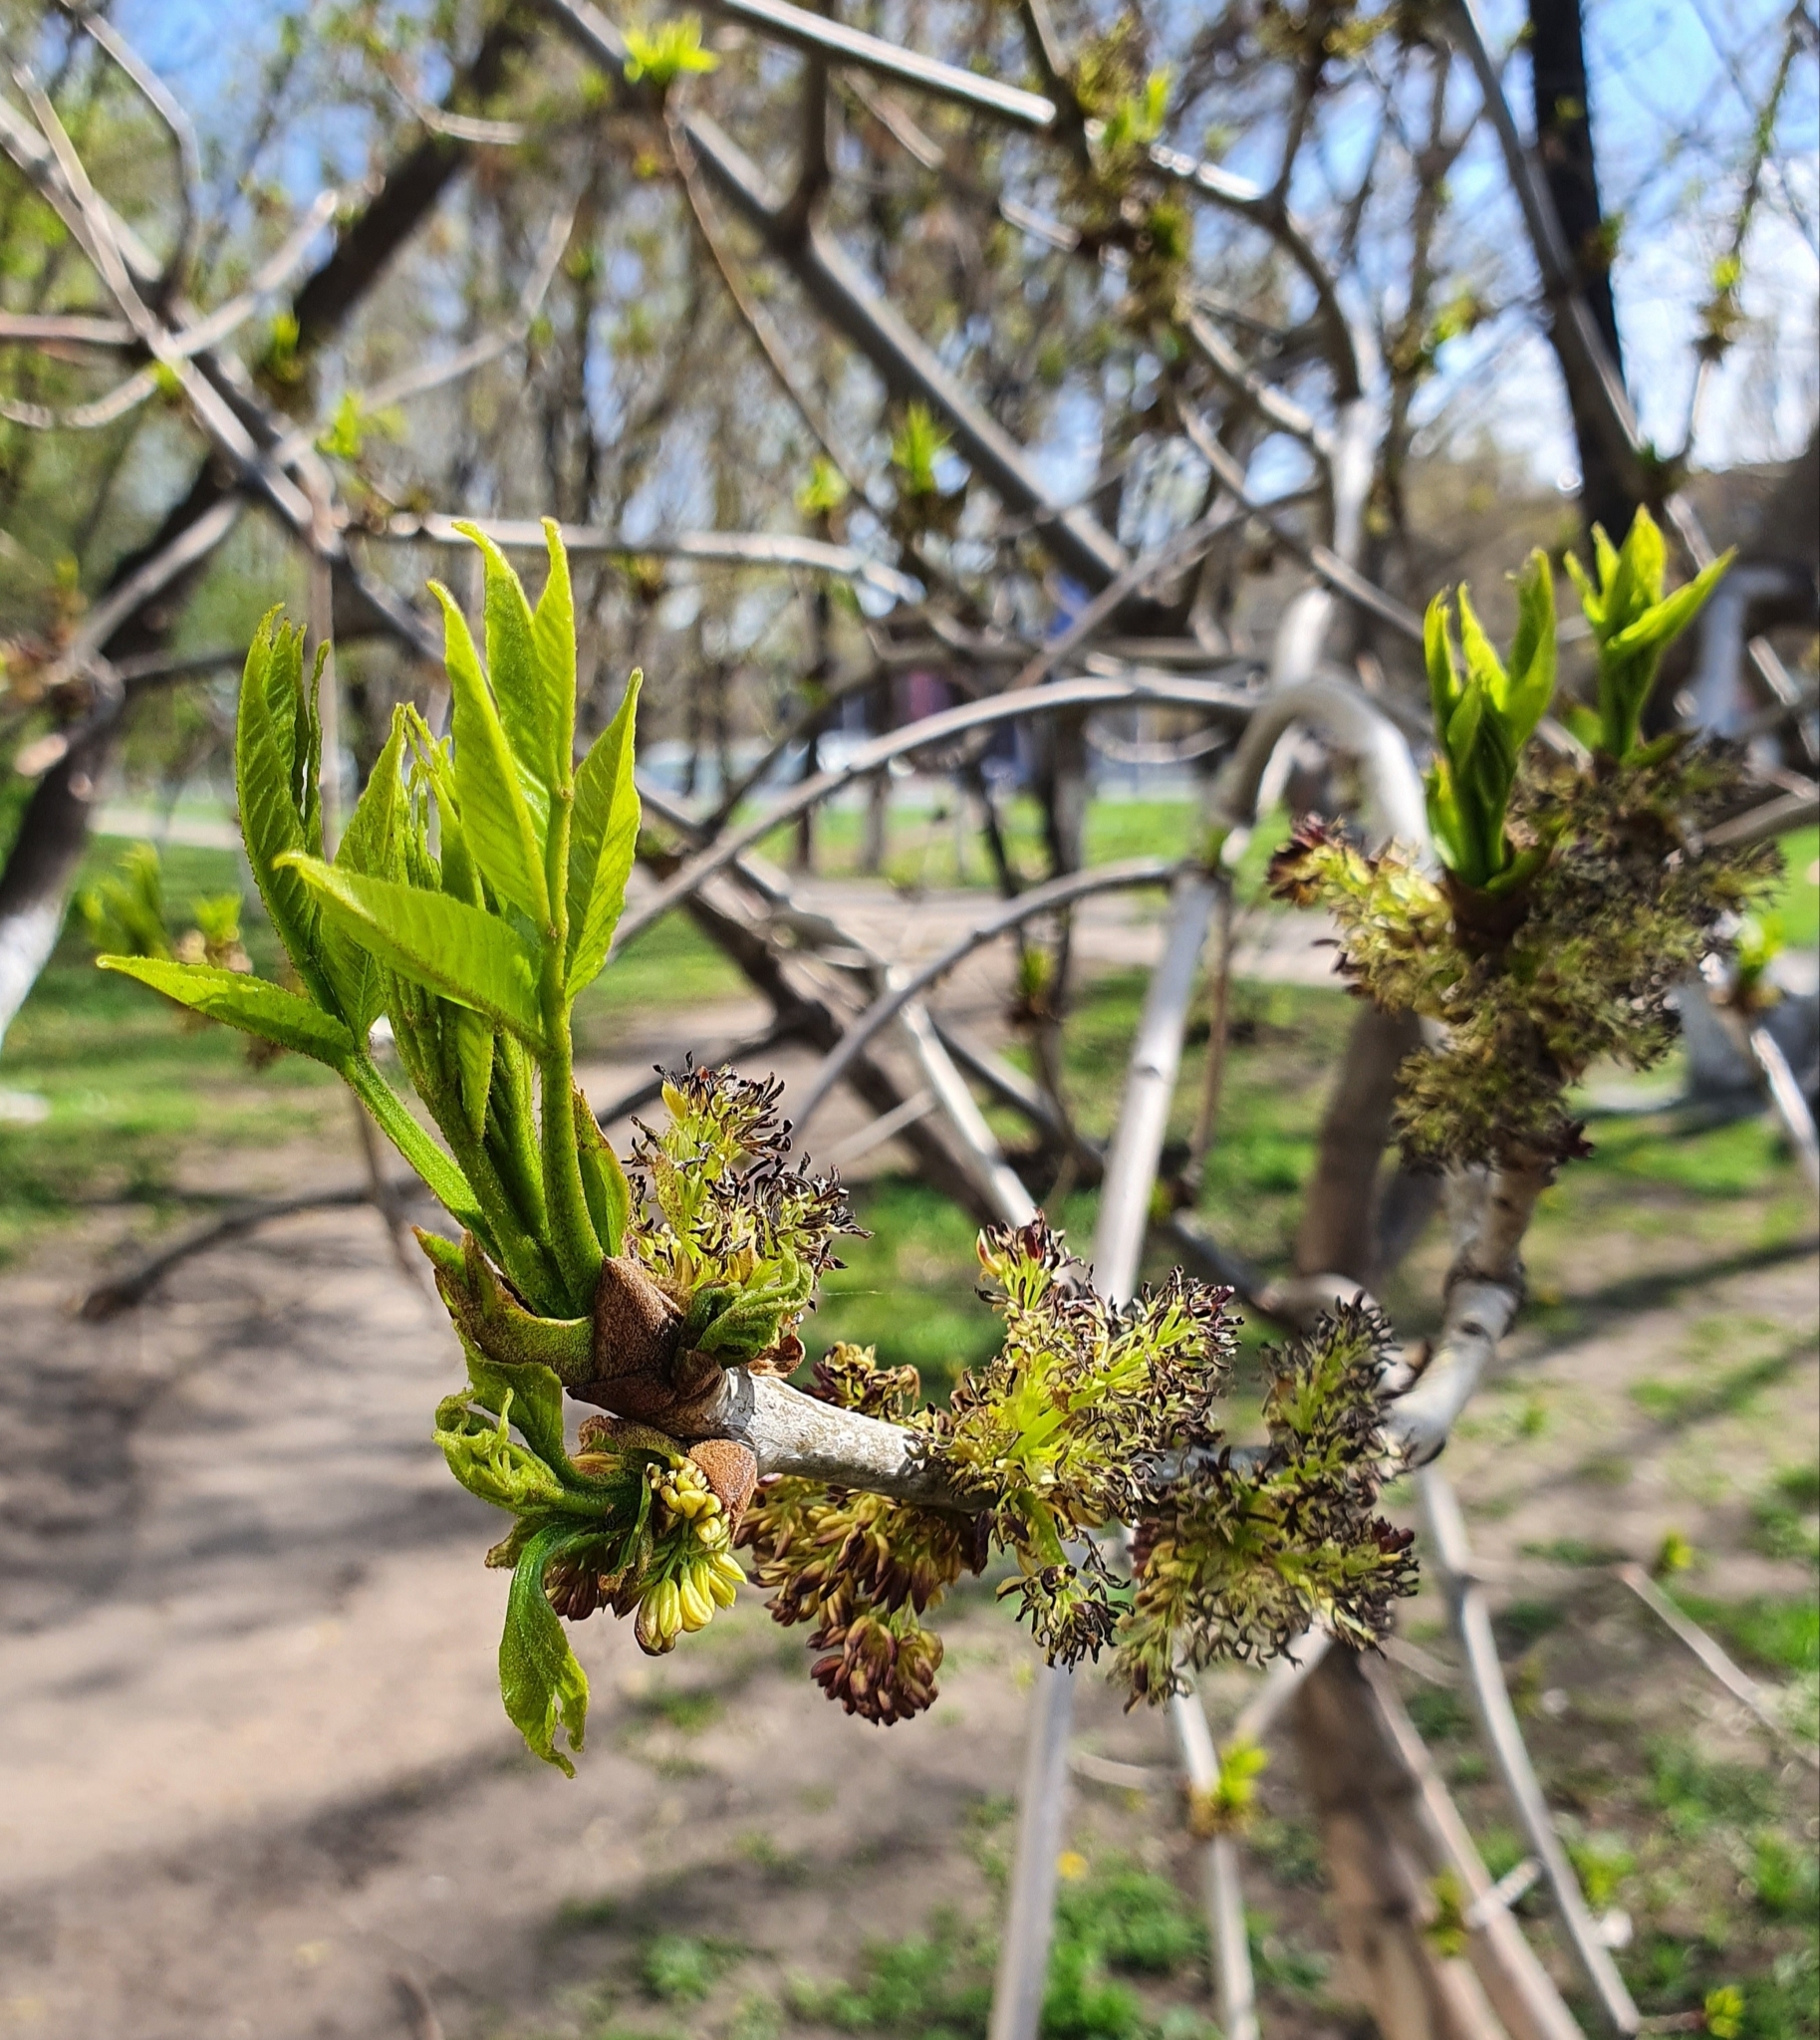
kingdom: Plantae
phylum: Tracheophyta
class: Magnoliopsida
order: Lamiales
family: Oleaceae
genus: Fraxinus
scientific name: Fraxinus pennsylvanica
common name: Green ash
